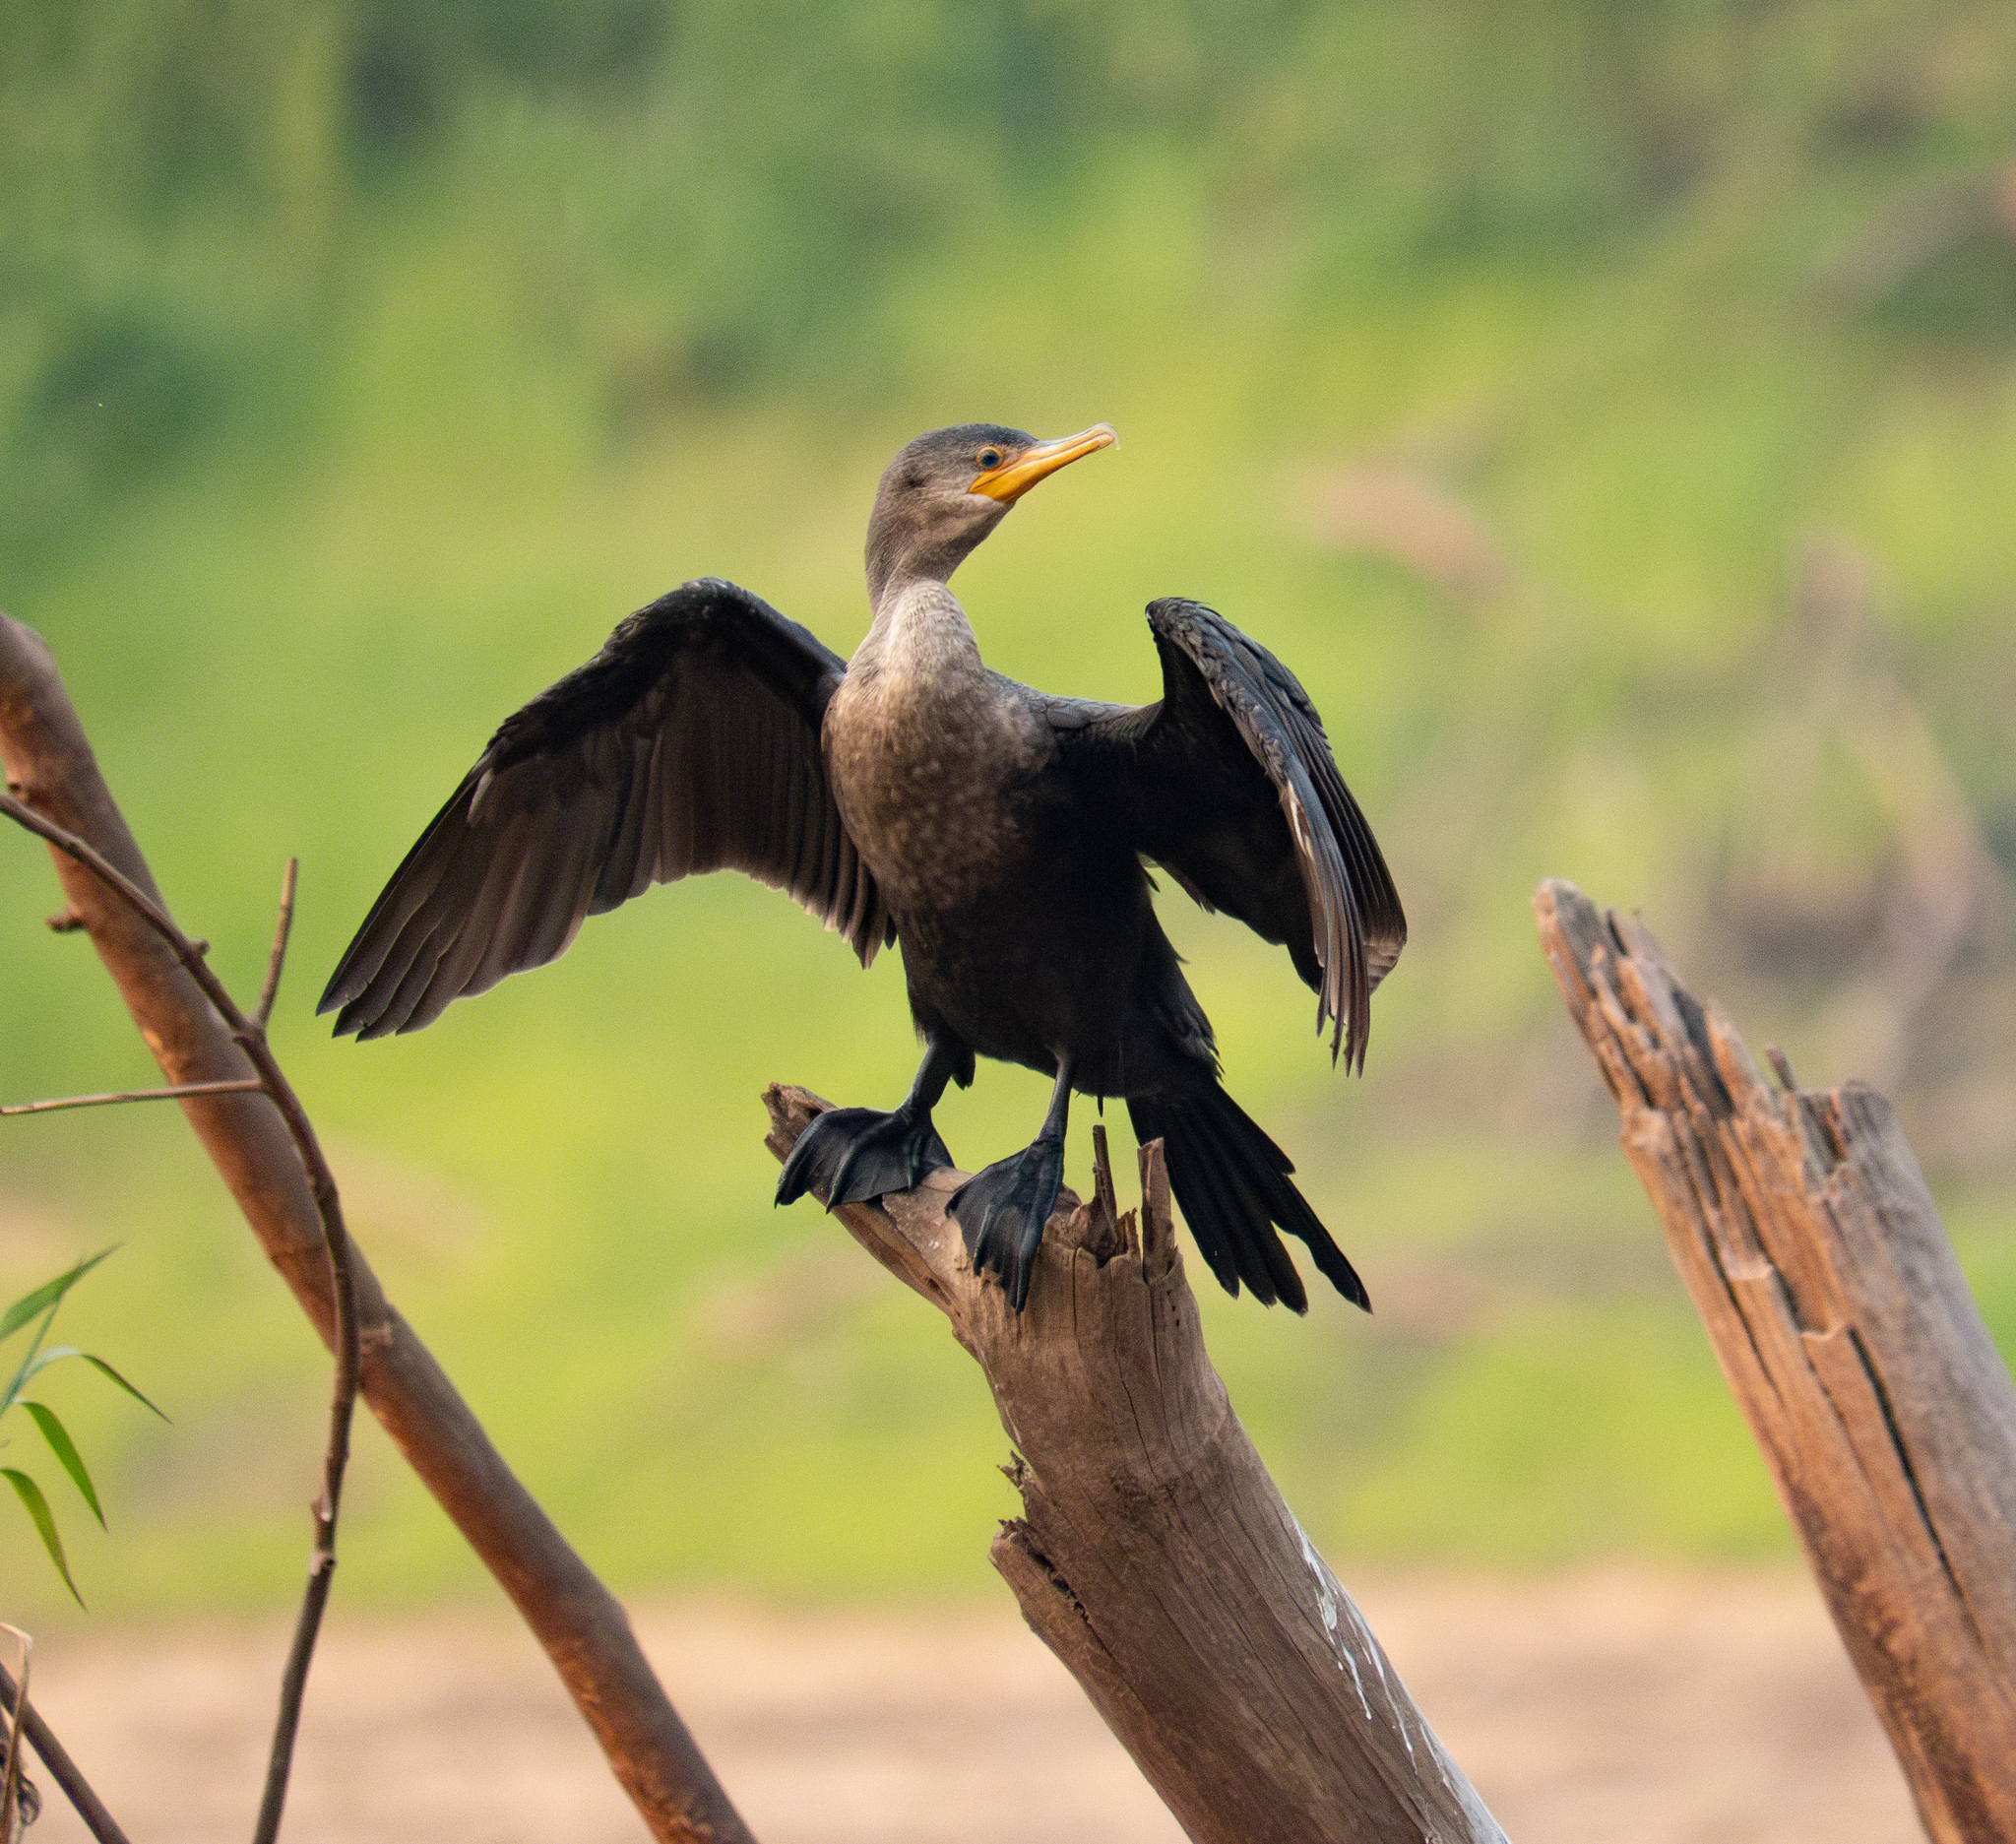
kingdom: Animalia
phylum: Chordata
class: Aves
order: Suliformes
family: Phalacrocoracidae
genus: Phalacrocorax
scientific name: Phalacrocorax brasilianus
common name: Neotropic cormorant
